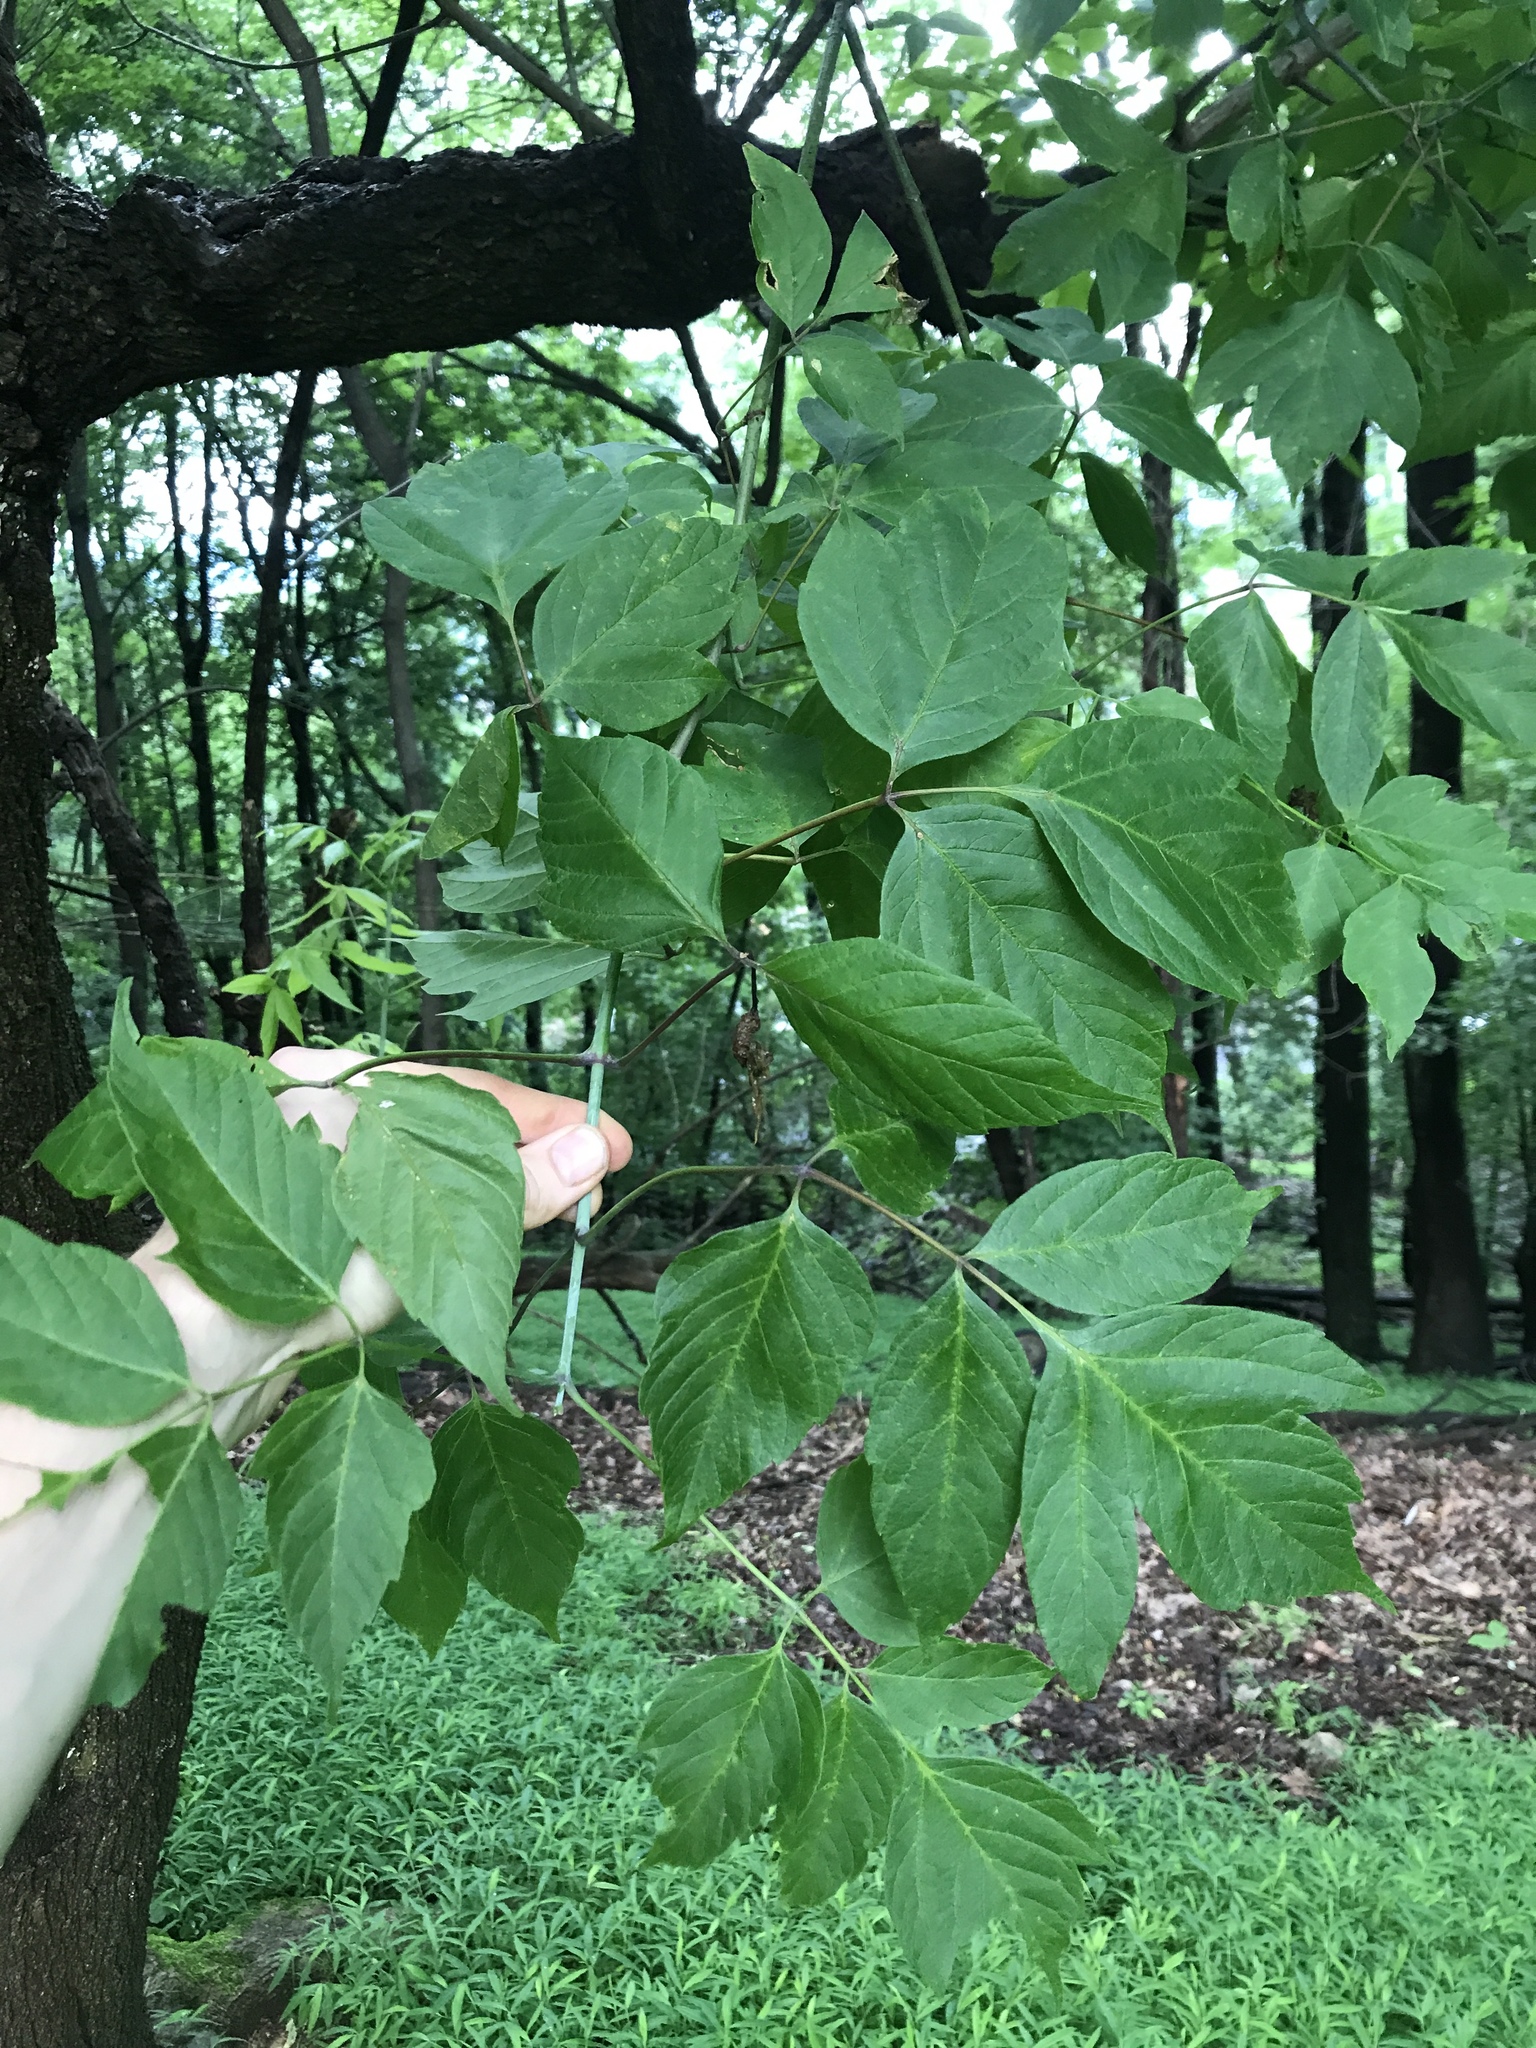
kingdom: Plantae
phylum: Tracheophyta
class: Magnoliopsida
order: Sapindales
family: Sapindaceae
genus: Acer
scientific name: Acer negundo
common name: Ashleaf maple
